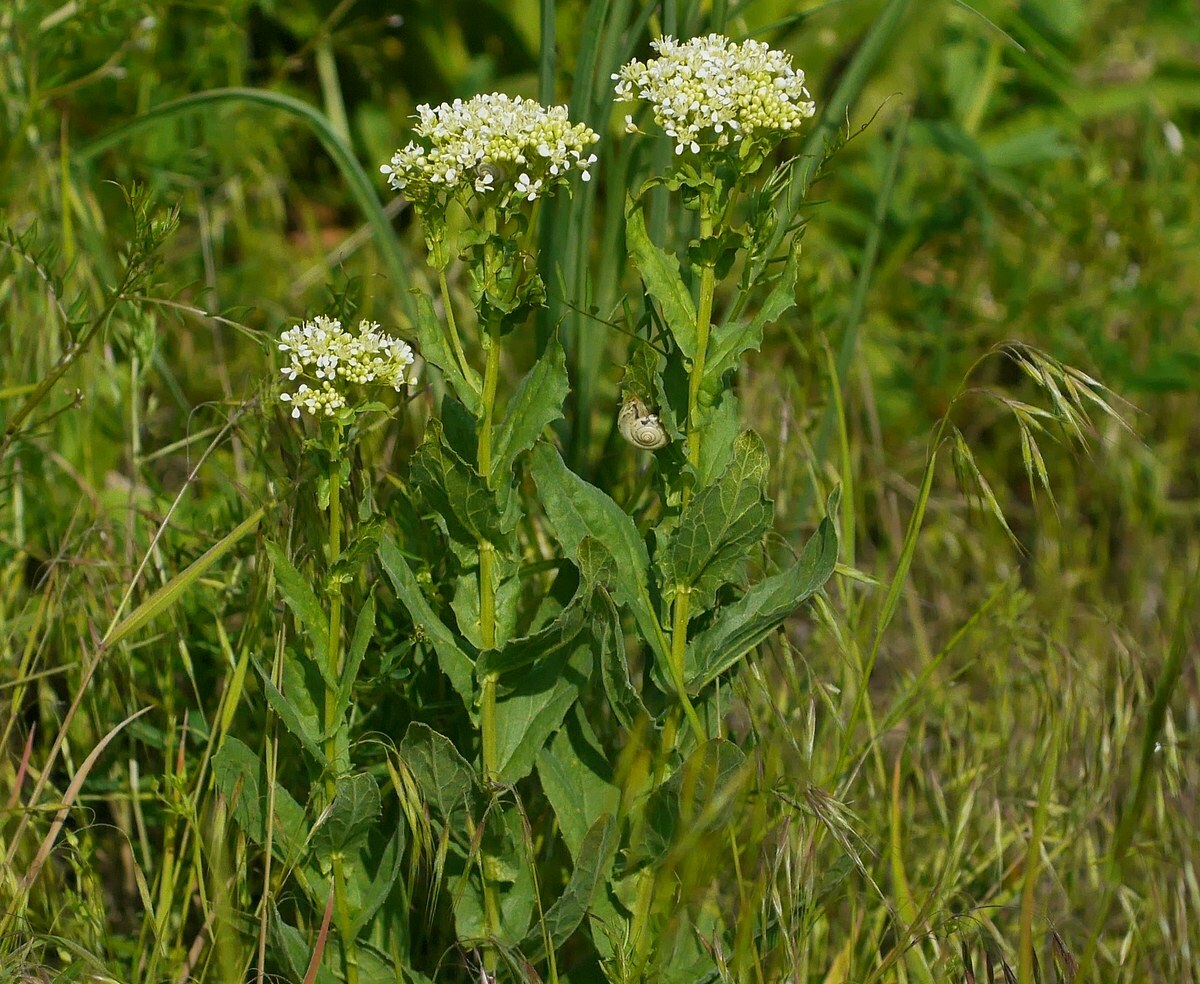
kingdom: Plantae
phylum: Tracheophyta
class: Magnoliopsida
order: Brassicales
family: Brassicaceae
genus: Lepidium
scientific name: Lepidium draba
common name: Hoary cress
